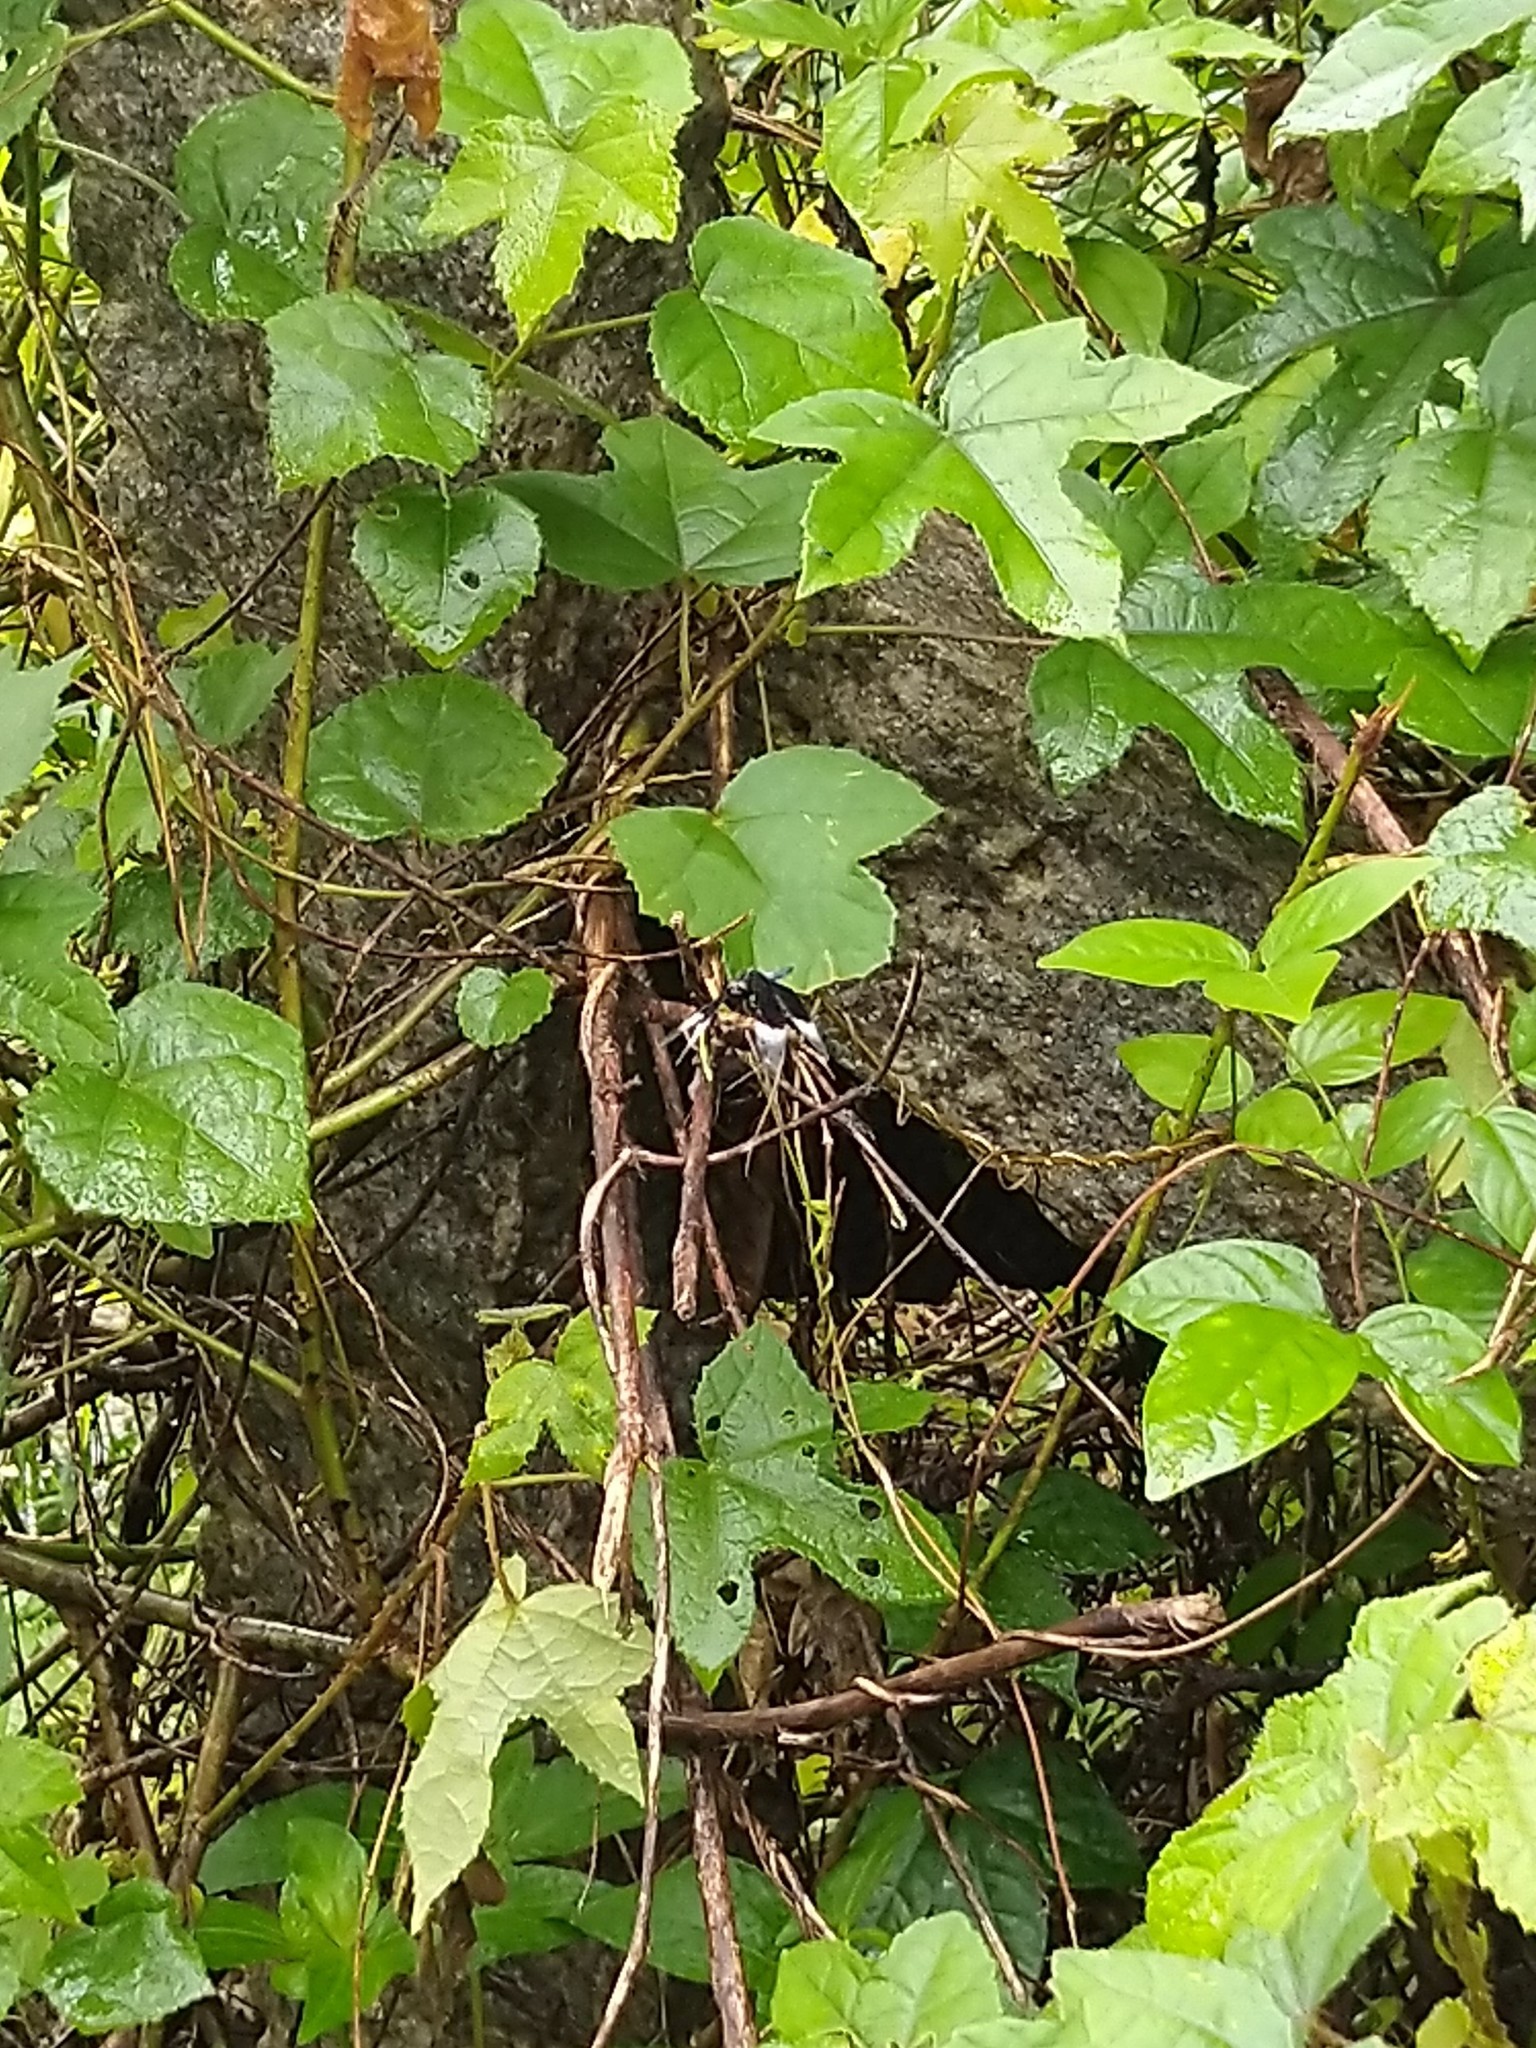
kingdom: Animalia
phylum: Arthropoda
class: Insecta
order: Odonata
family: Libellulidae
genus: Neurothemis
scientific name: Neurothemis tullia
